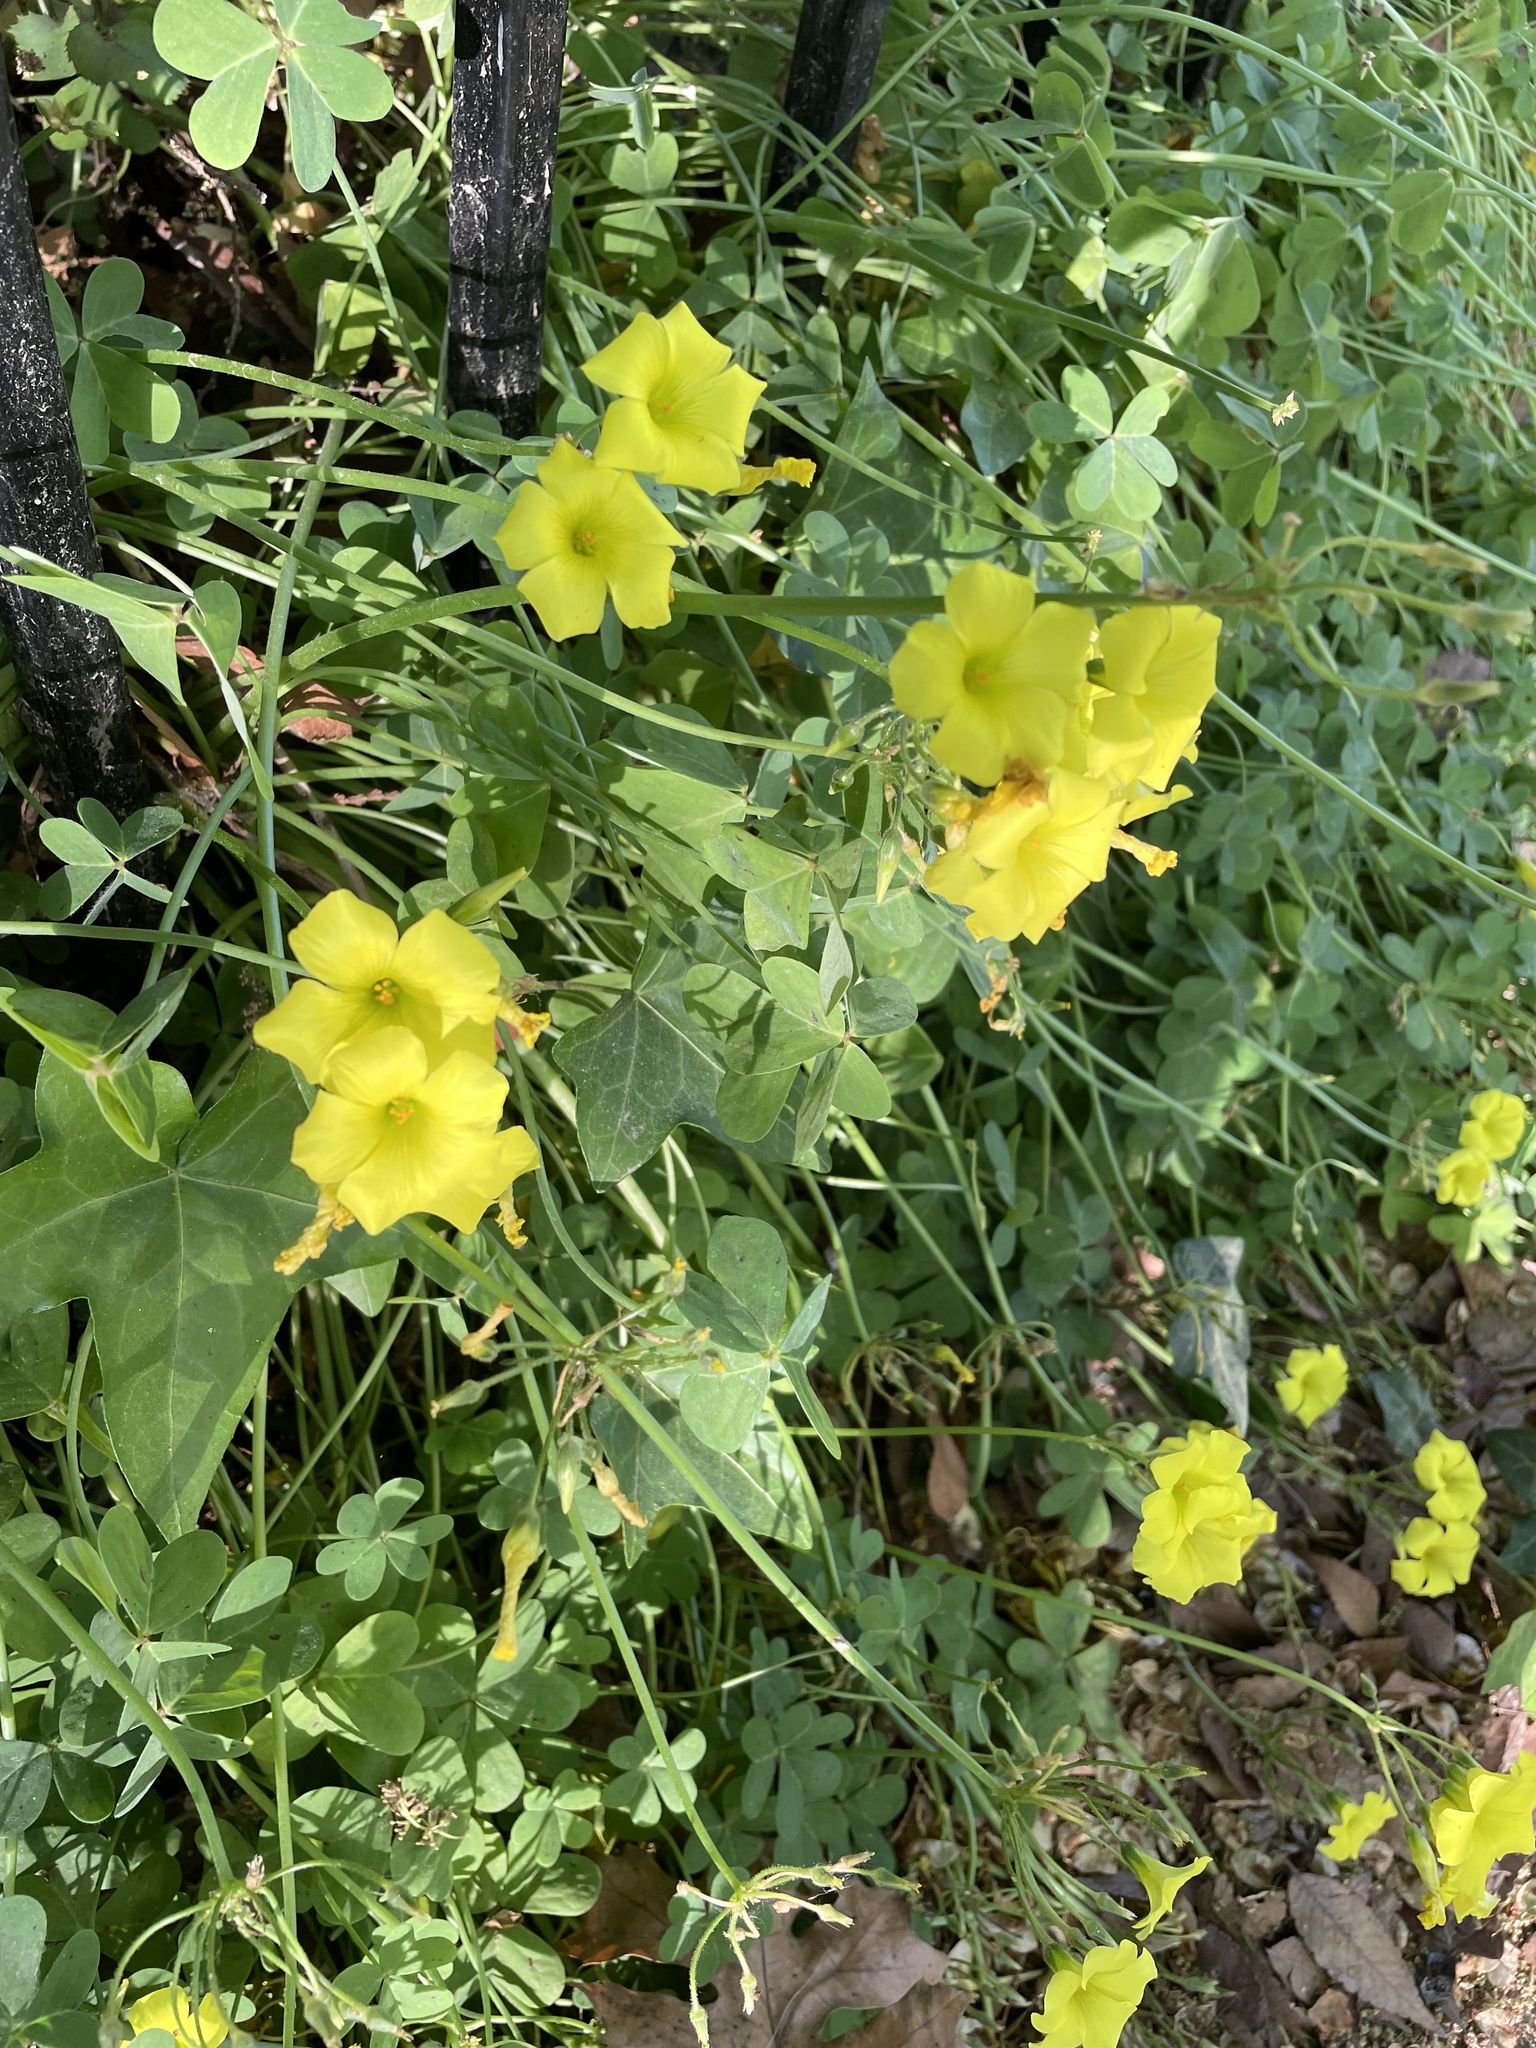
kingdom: Plantae
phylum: Tracheophyta
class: Magnoliopsida
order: Oxalidales
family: Oxalidaceae
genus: Oxalis
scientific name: Oxalis pes-caprae
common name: Bermuda-buttercup
